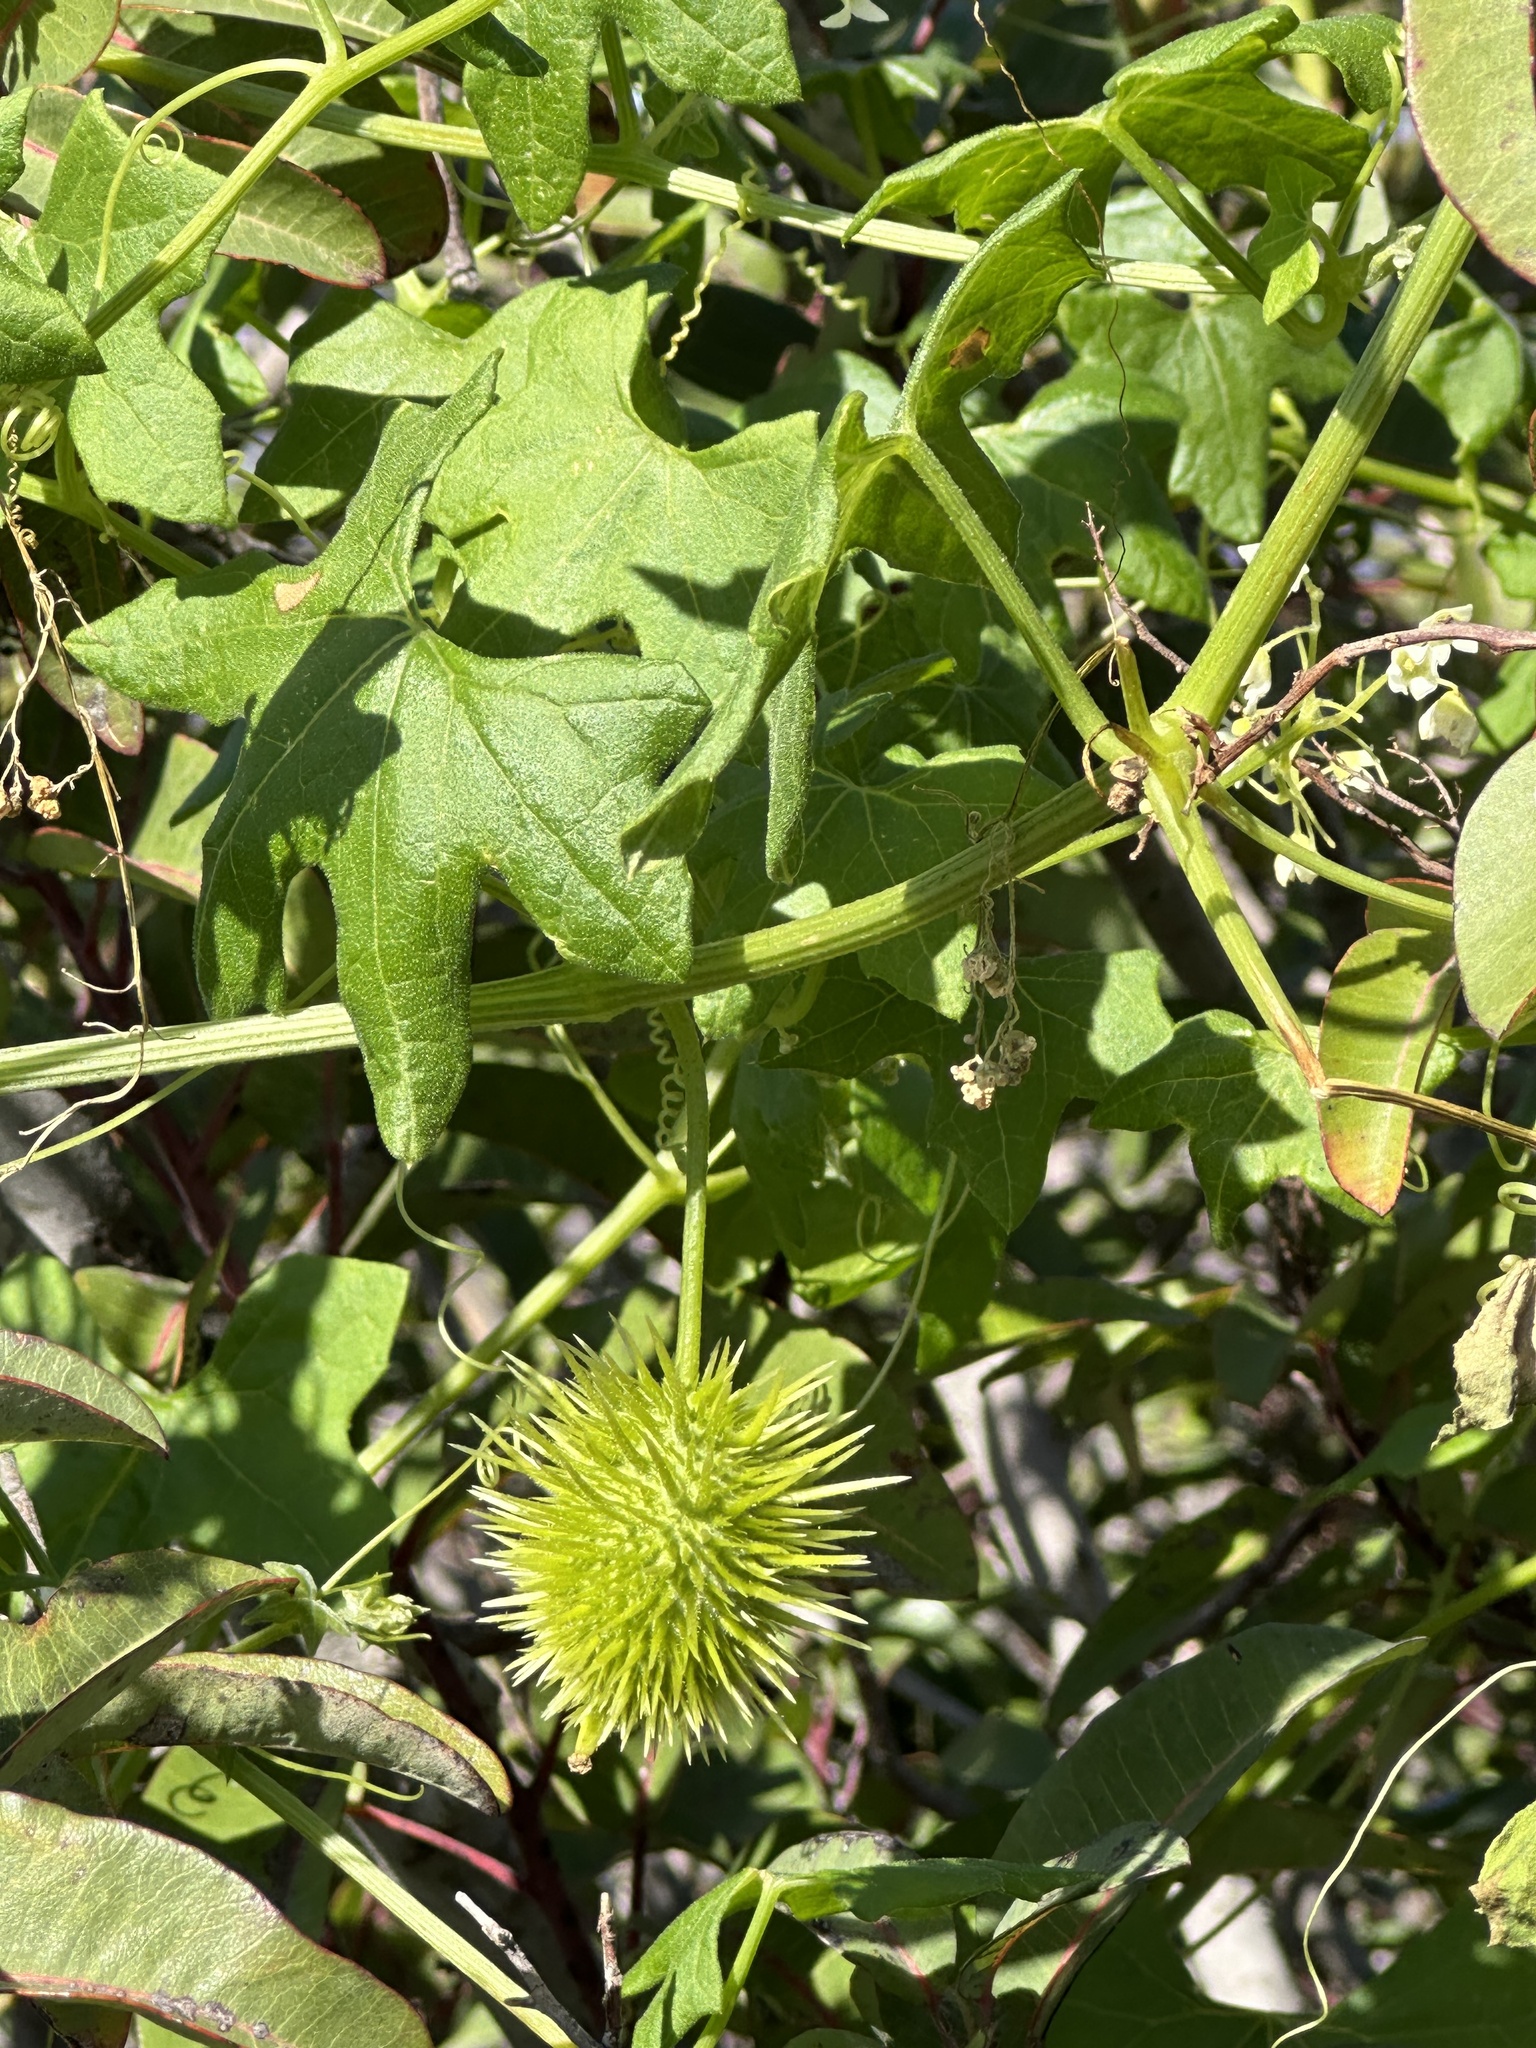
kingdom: Plantae
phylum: Tracheophyta
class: Magnoliopsida
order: Cucurbitales
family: Cucurbitaceae
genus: Marah
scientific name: Marah macrocarpa
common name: Cucamonga manroot
